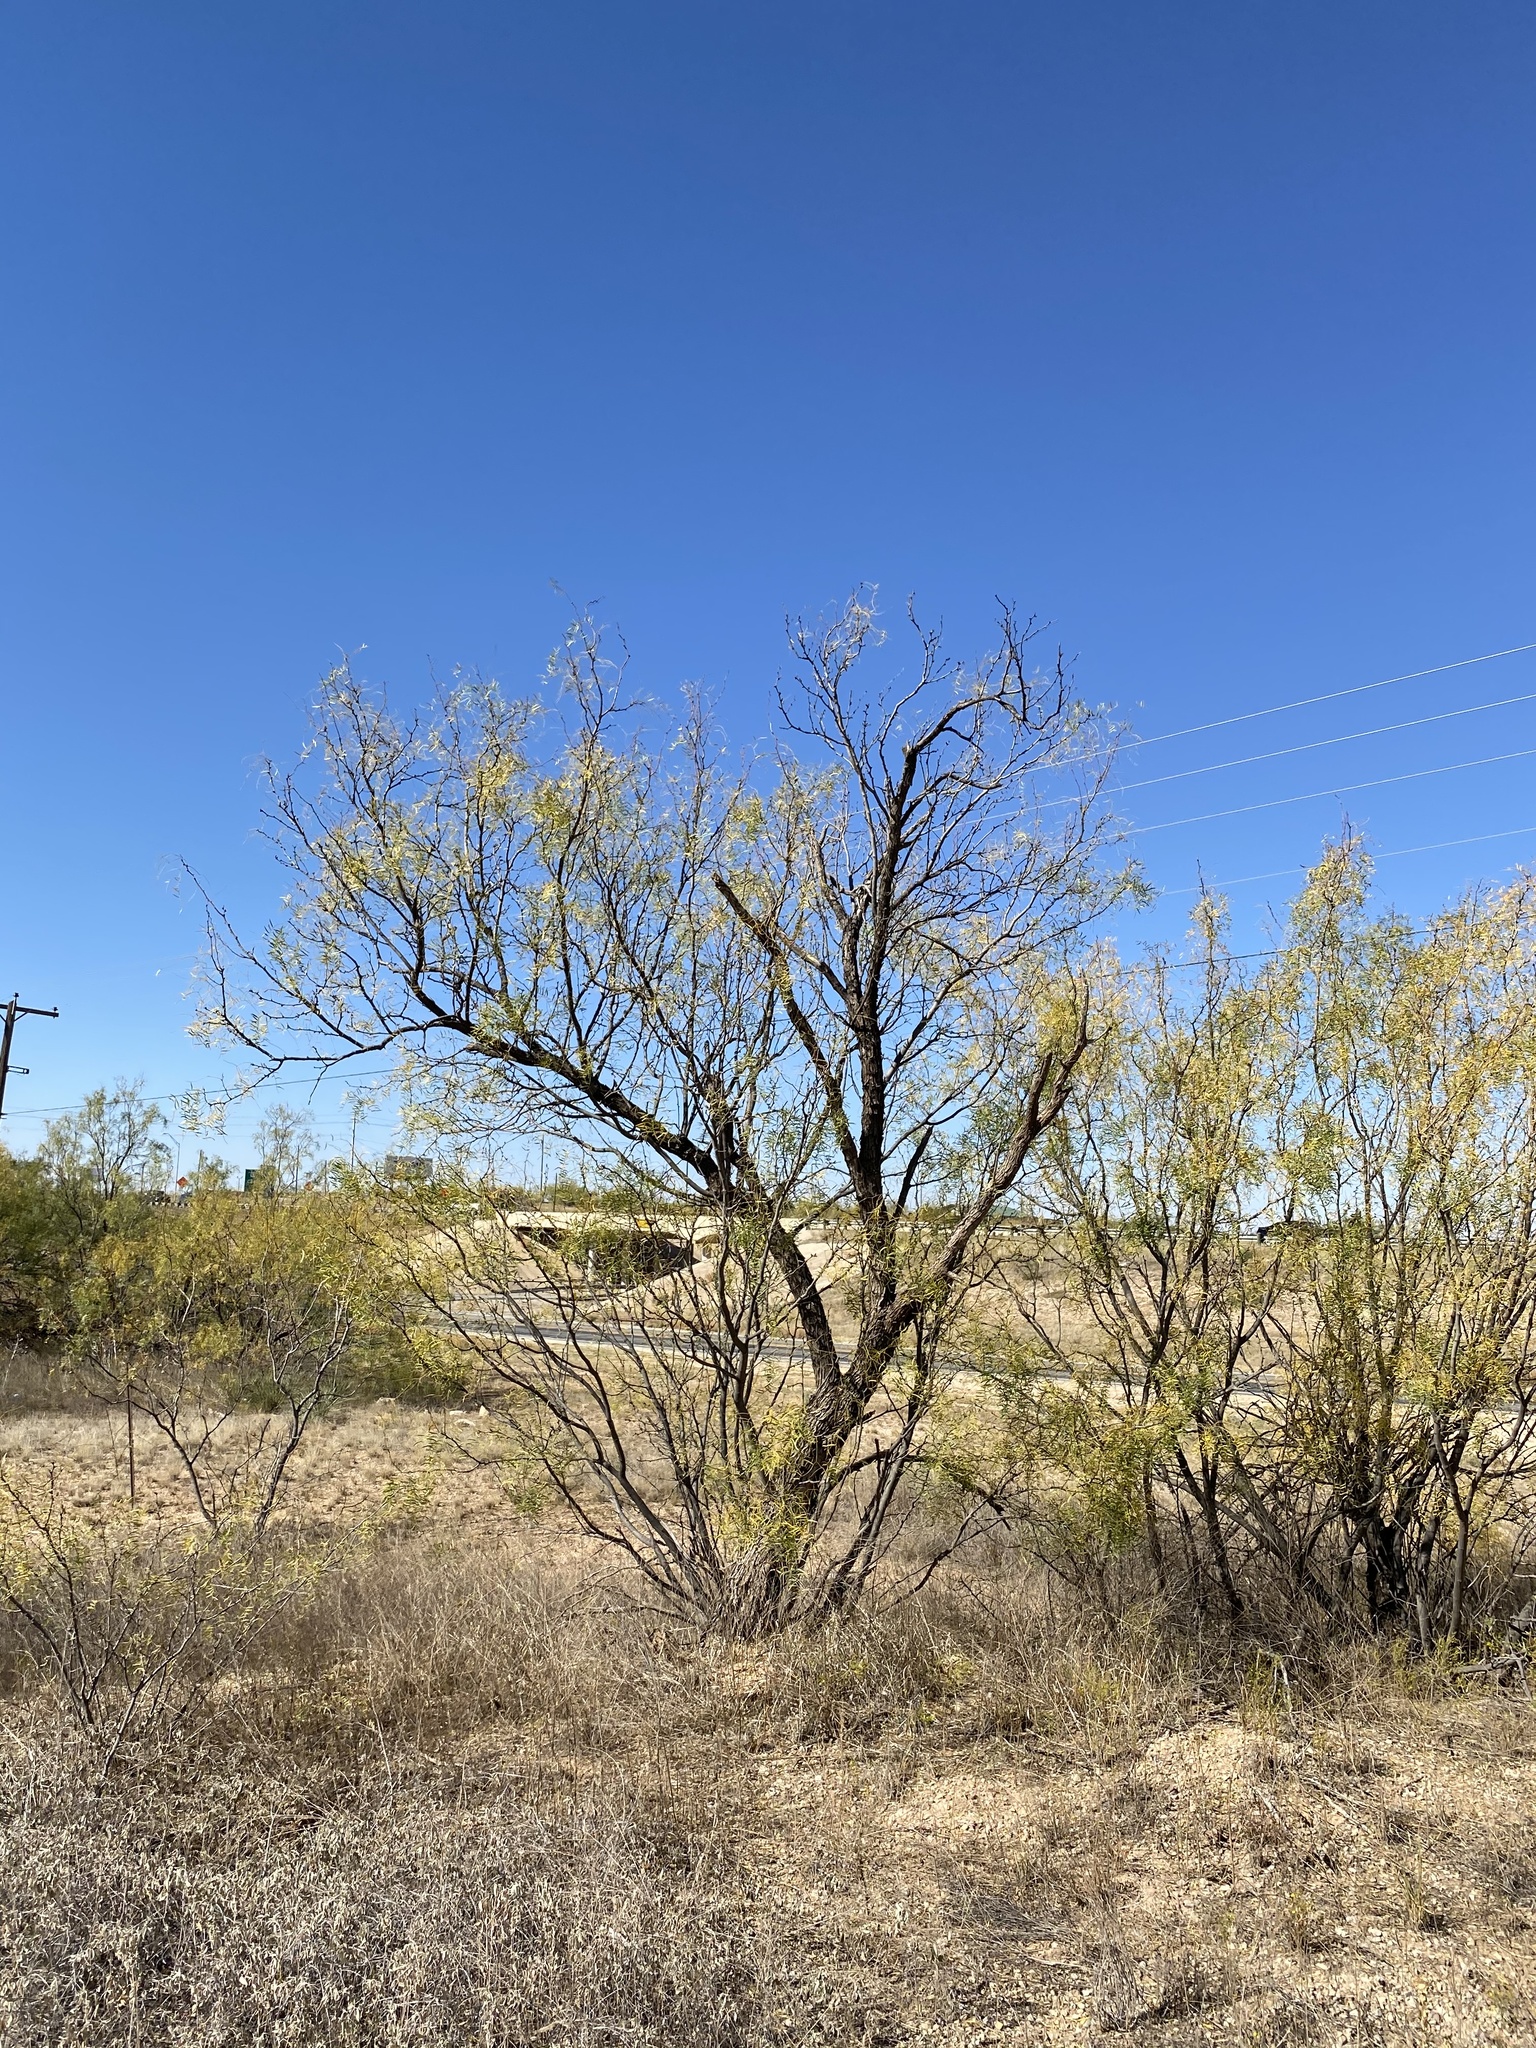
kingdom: Plantae
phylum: Tracheophyta
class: Magnoliopsida
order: Fabales
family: Fabaceae
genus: Prosopis
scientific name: Prosopis glandulosa
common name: Honey mesquite
